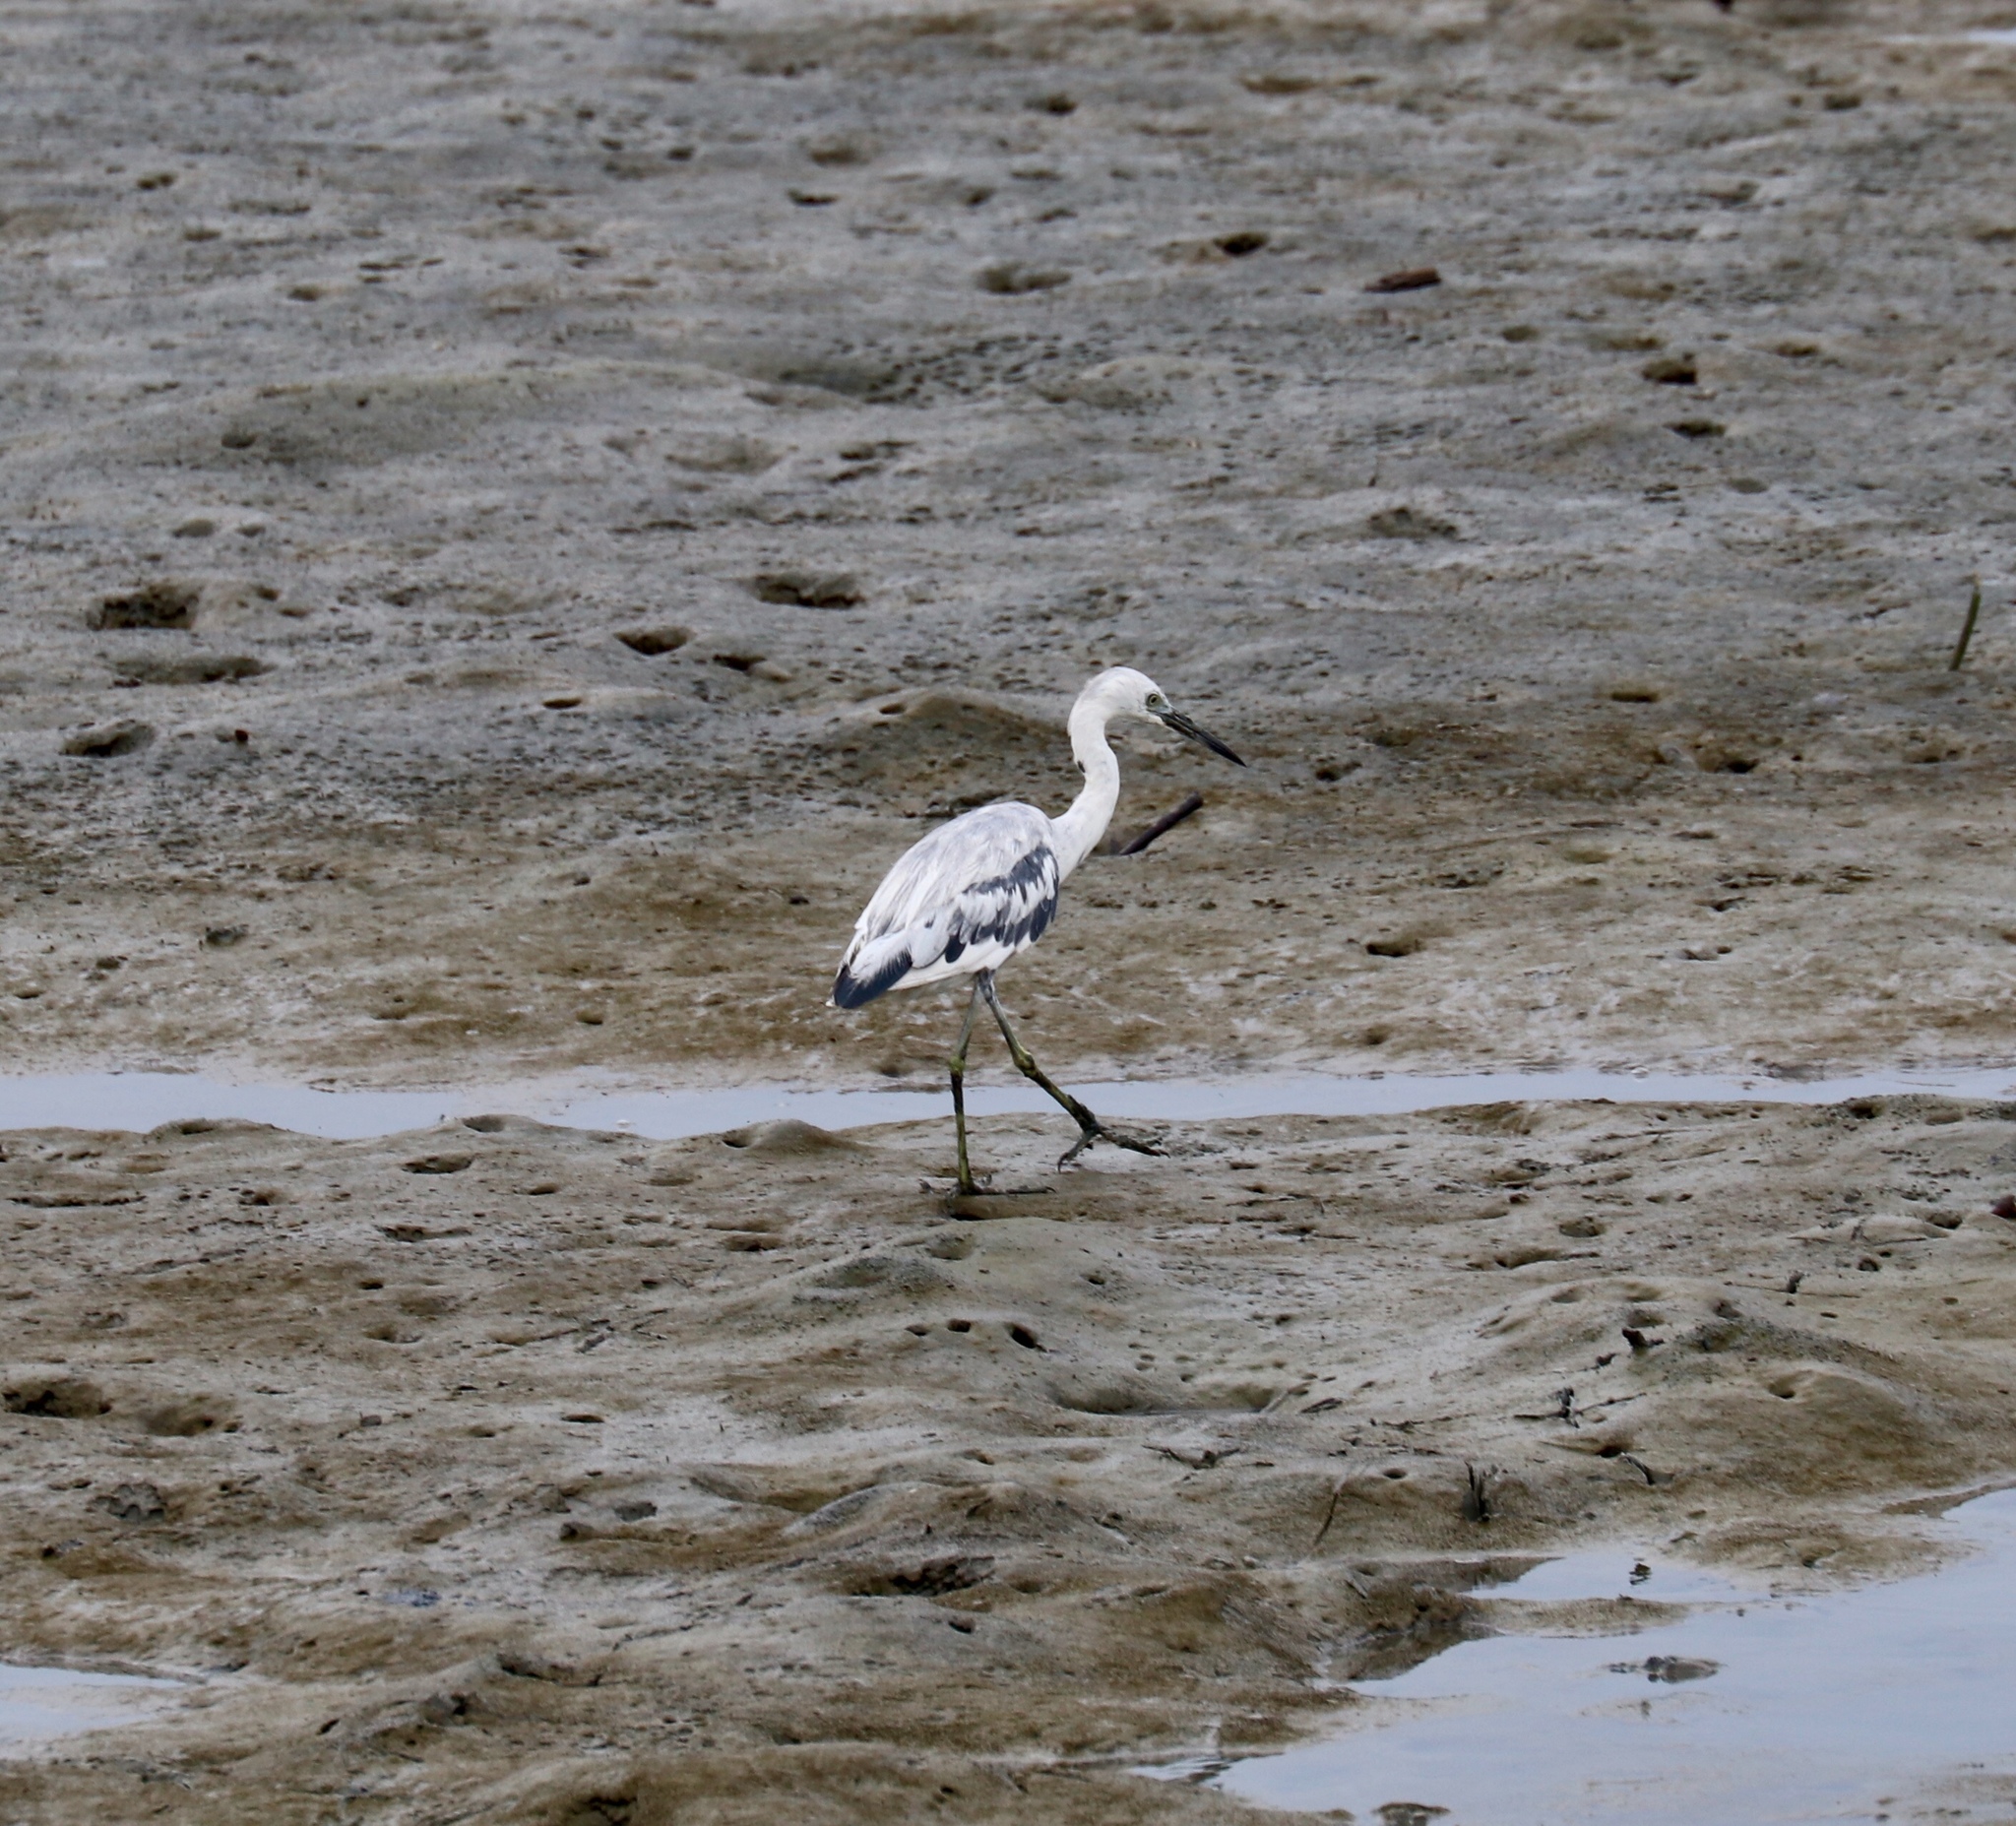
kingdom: Animalia
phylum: Chordata
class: Aves
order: Pelecaniformes
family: Ardeidae
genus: Egretta
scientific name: Egretta caerulea
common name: Little blue heron
